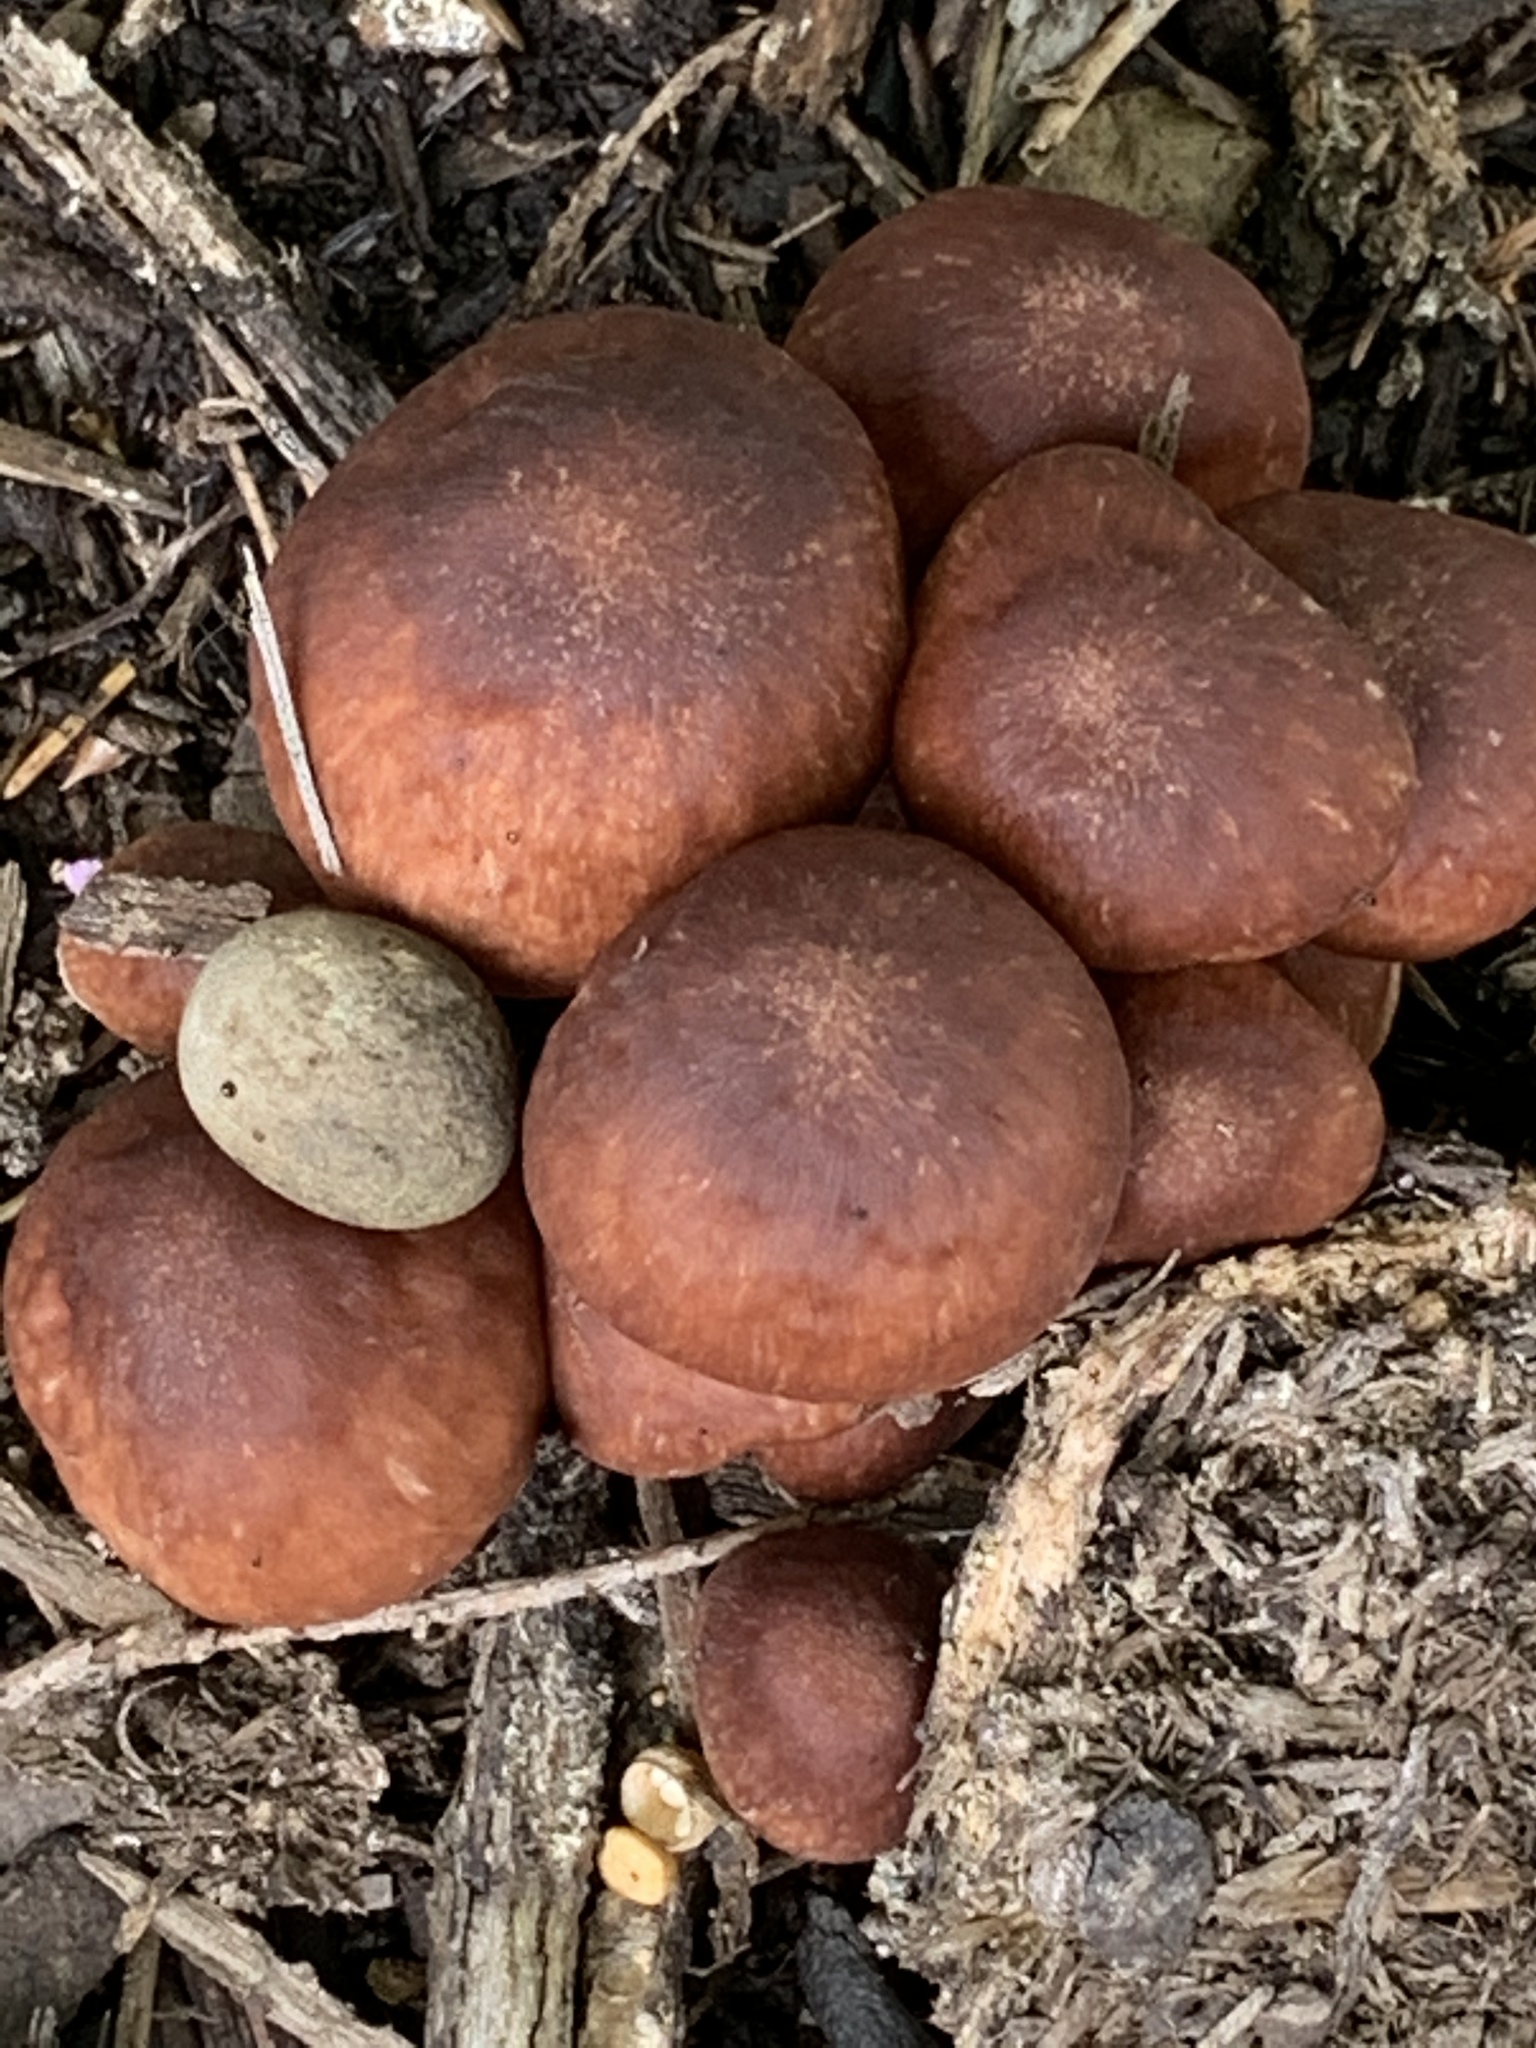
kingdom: Fungi
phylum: Basidiomycota
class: Agaricomycetes
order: Agaricales
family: Omphalotaceae
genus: Collybiopsis
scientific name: Collybiopsis luxurians
